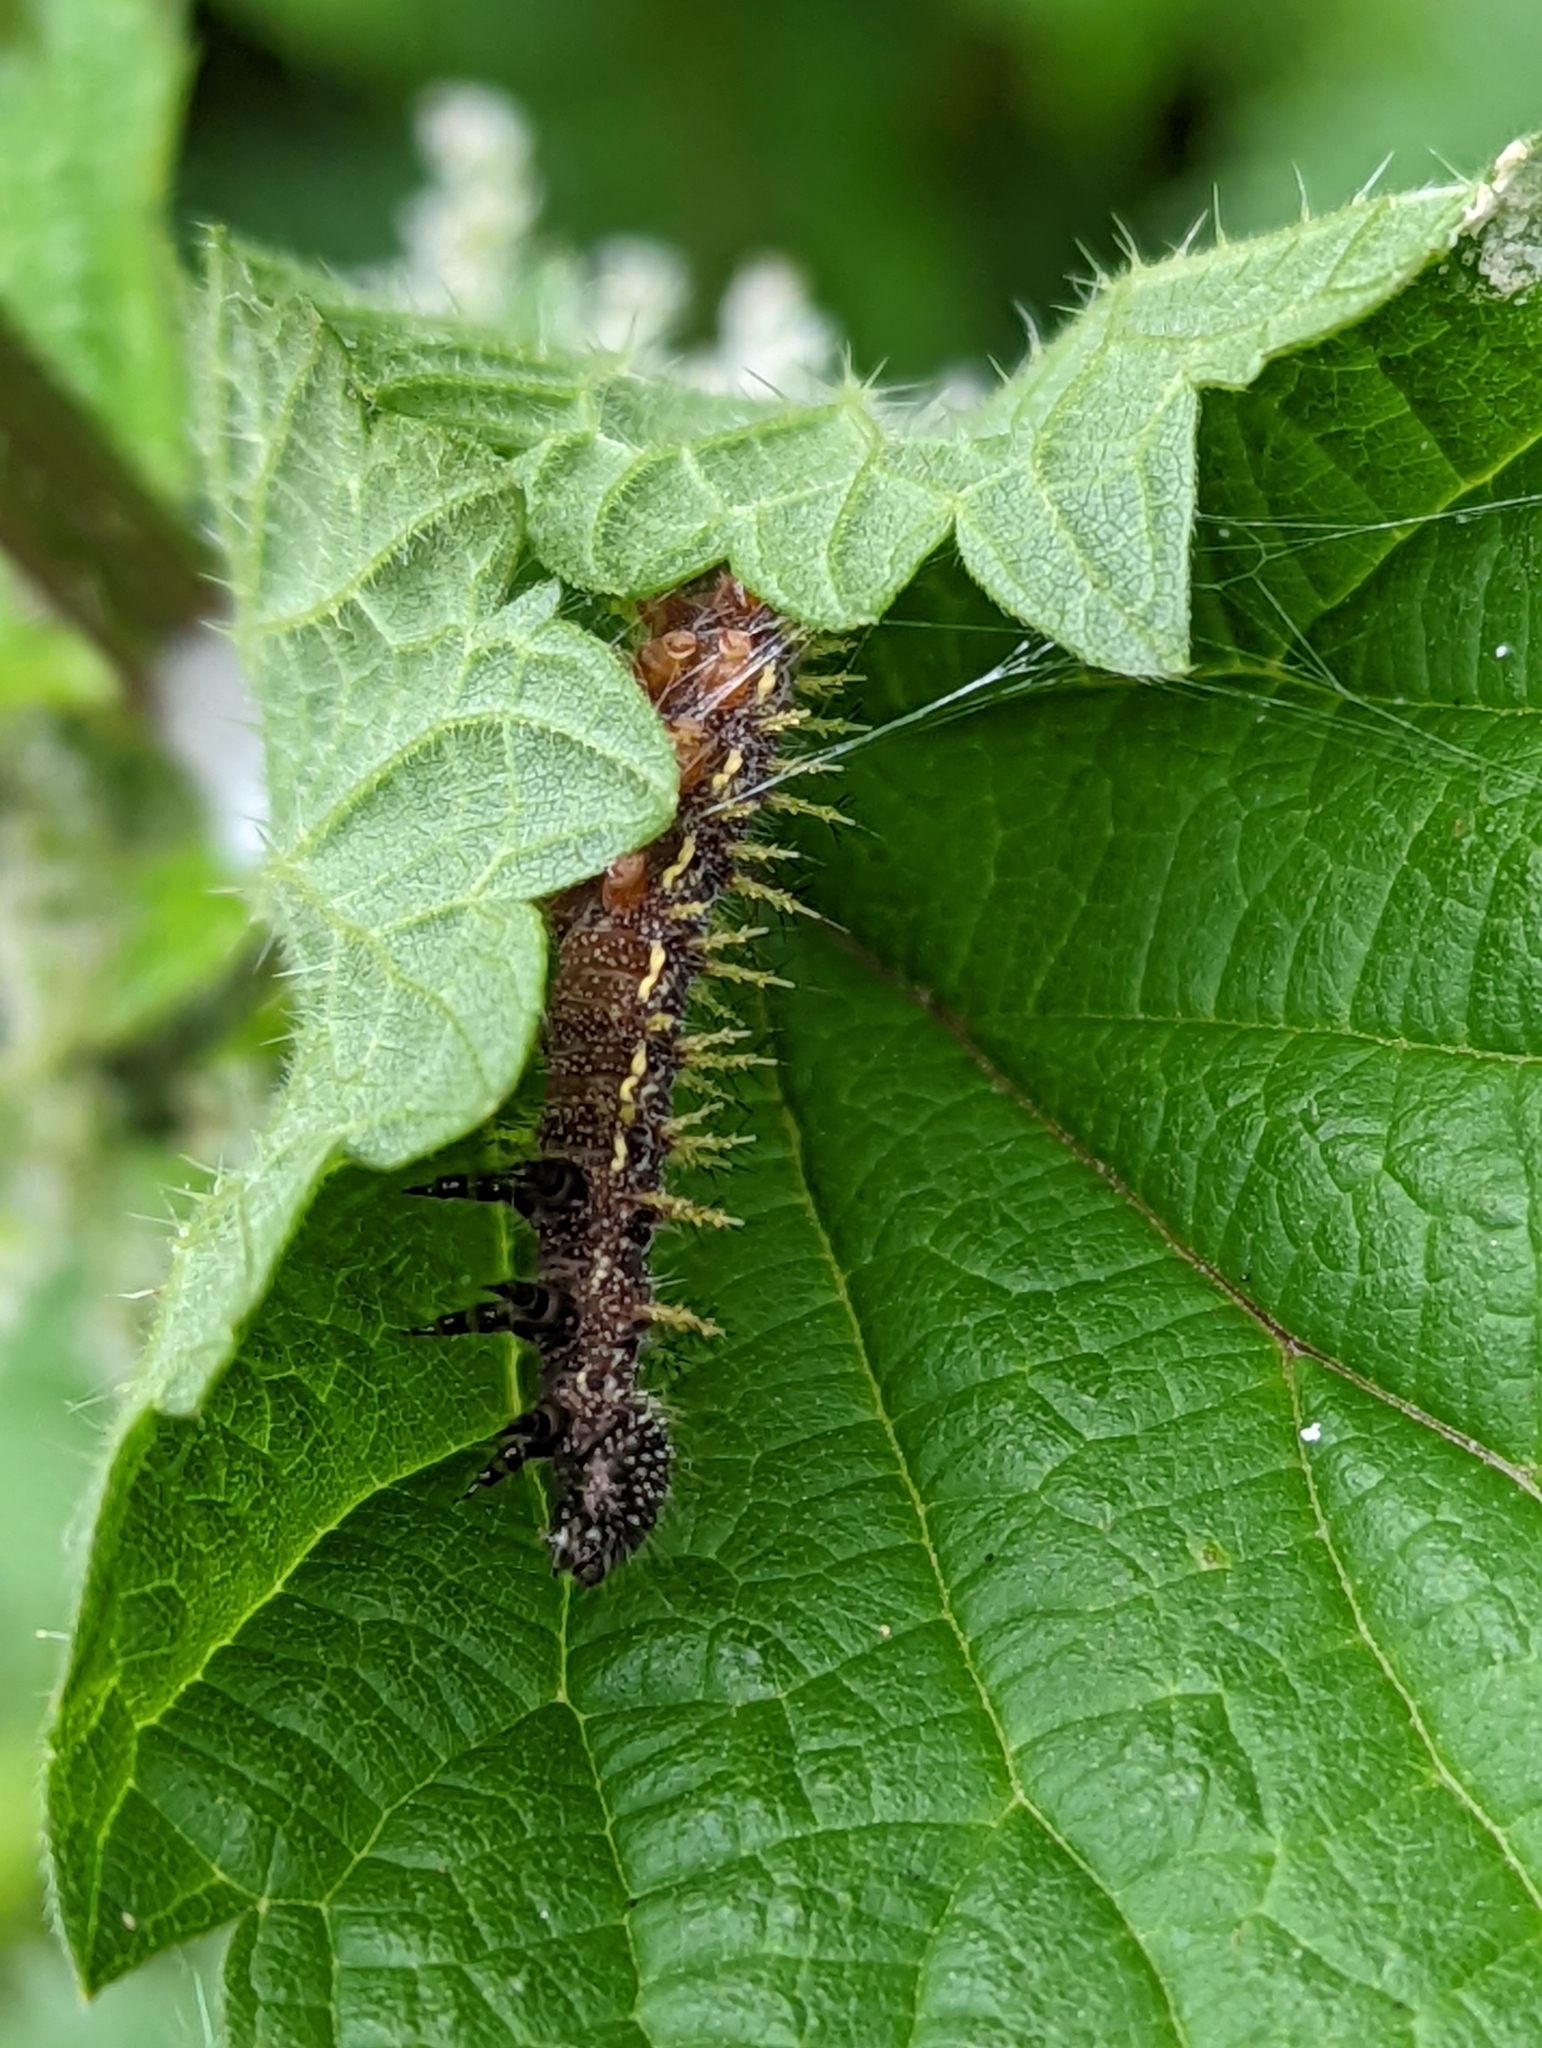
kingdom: Animalia
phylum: Arthropoda
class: Insecta
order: Lepidoptera
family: Nymphalidae
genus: Vanessa
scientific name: Vanessa atalanta
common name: Red admiral
